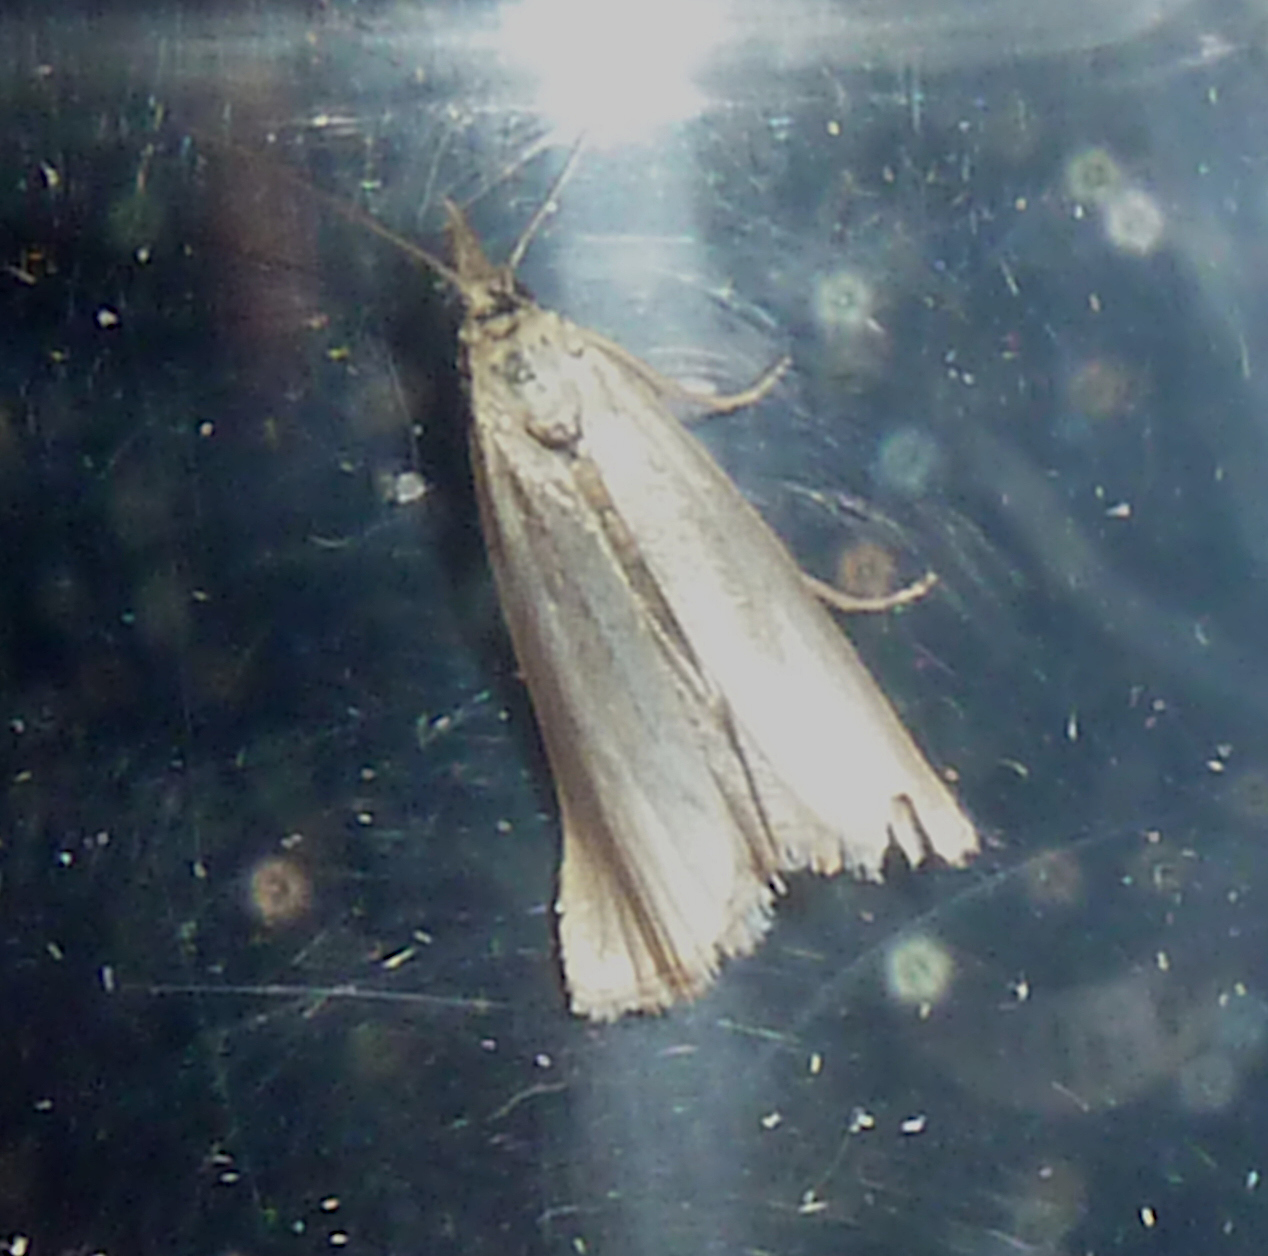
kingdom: Animalia
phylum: Arthropoda
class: Insecta
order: Lepidoptera
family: Crambidae
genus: Crambus
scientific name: Crambus perlellus
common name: Yellow satin veneer
